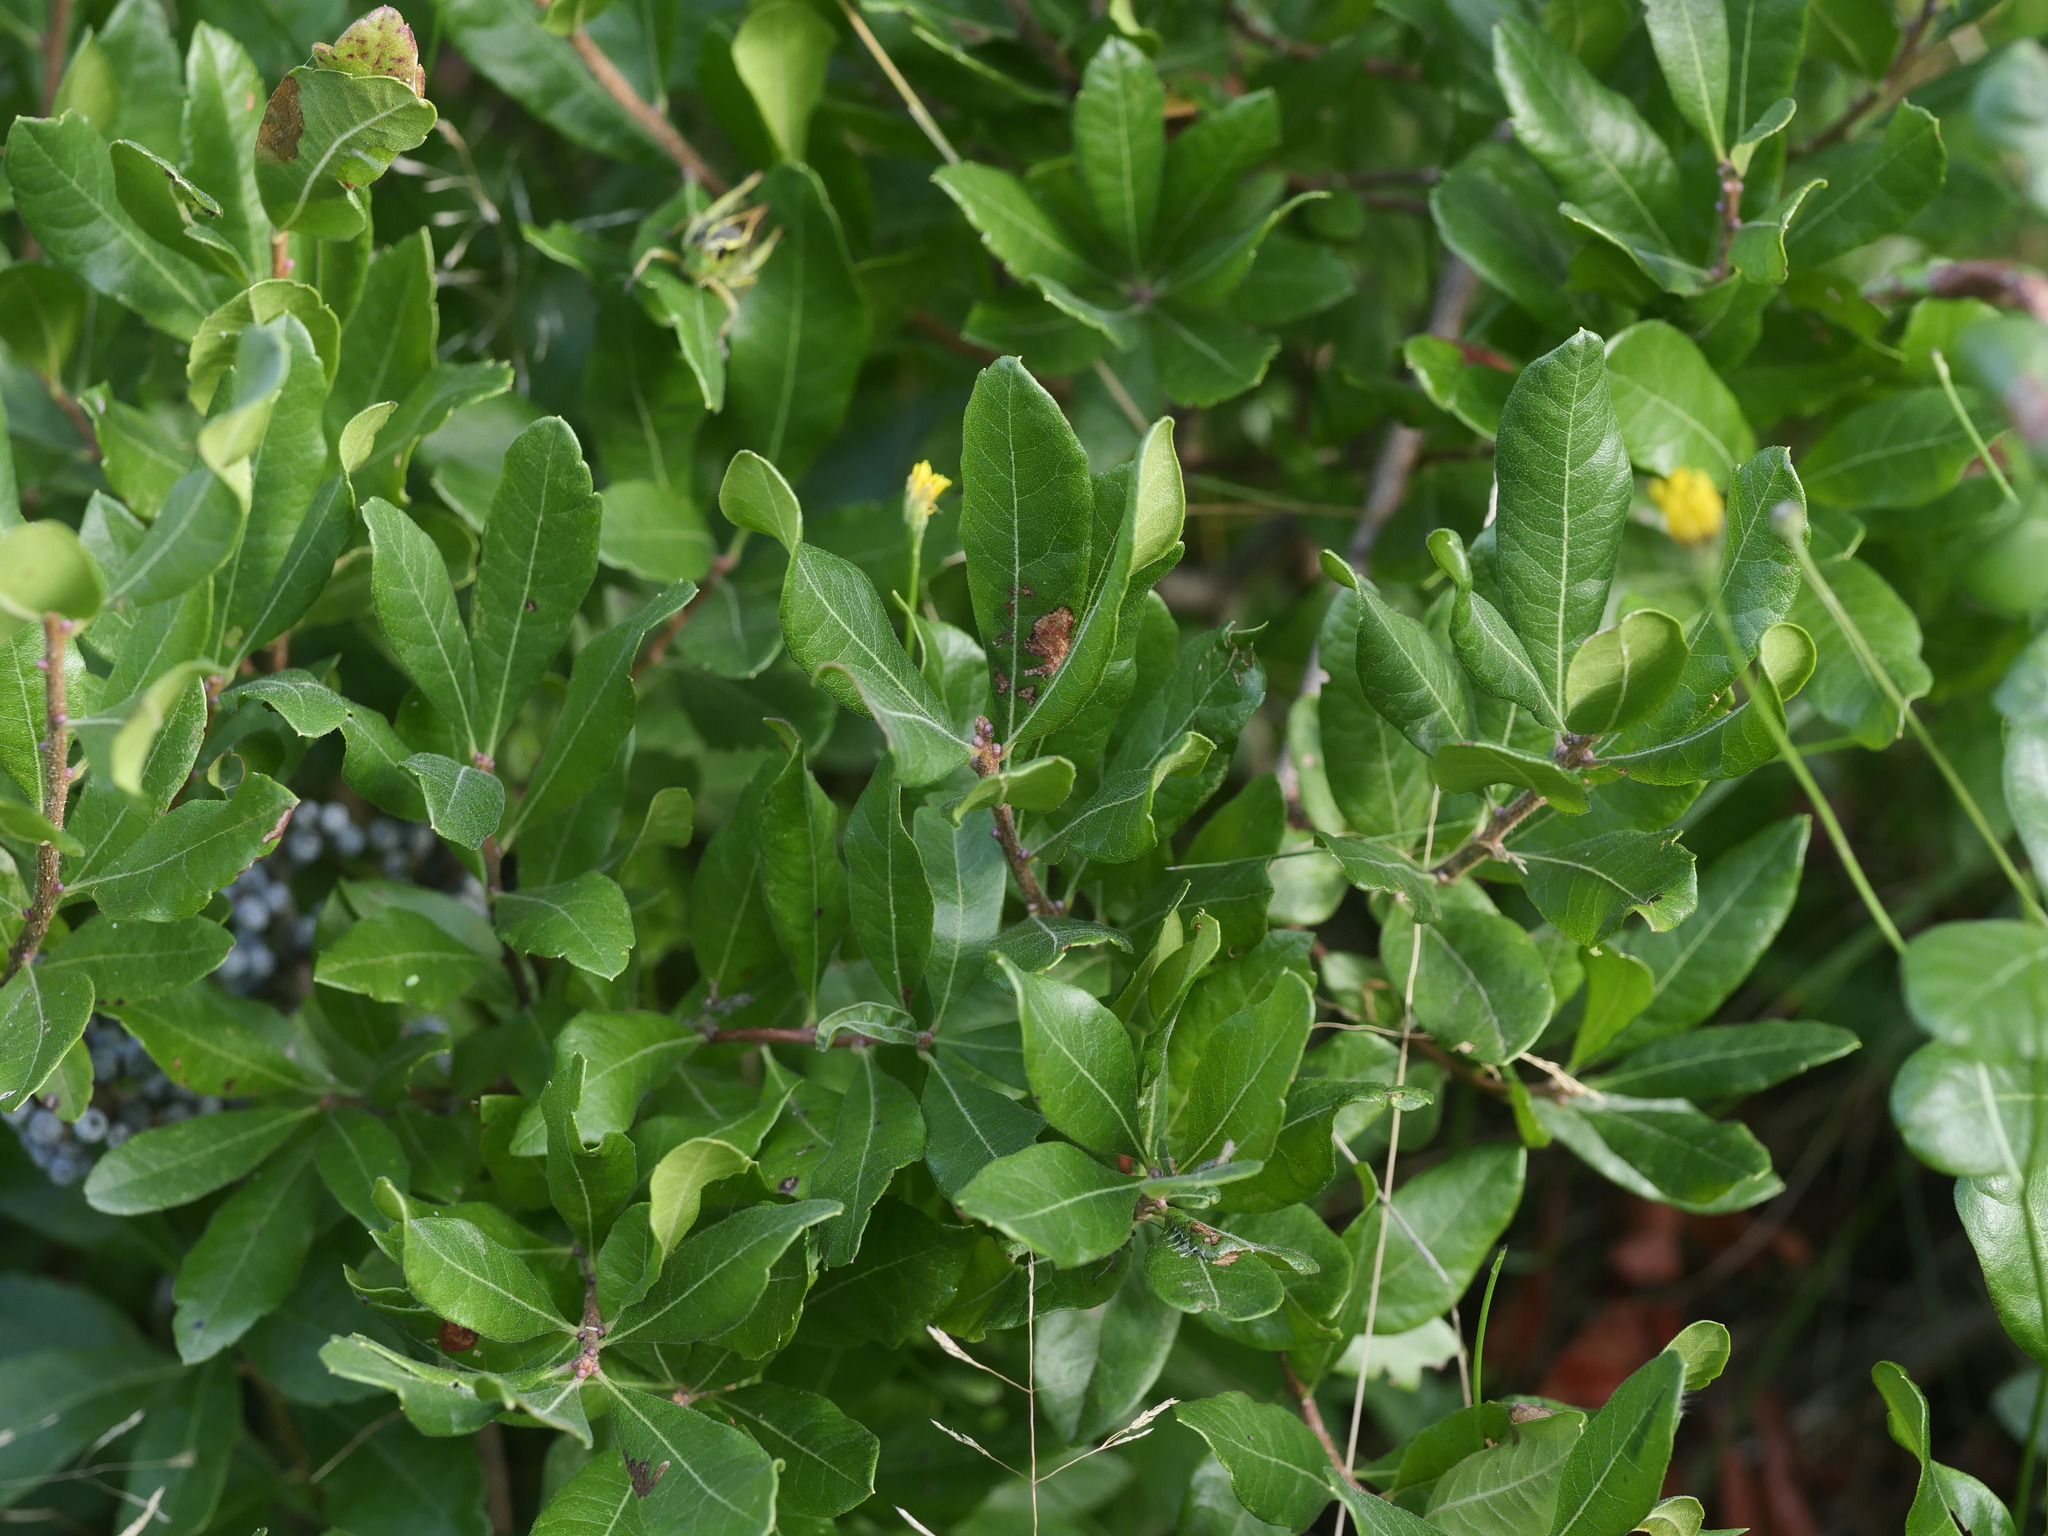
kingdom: Plantae
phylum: Tracheophyta
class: Magnoliopsida
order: Fagales
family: Myricaceae
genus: Morella
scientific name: Morella pensylvanica
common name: Northern bayberry
